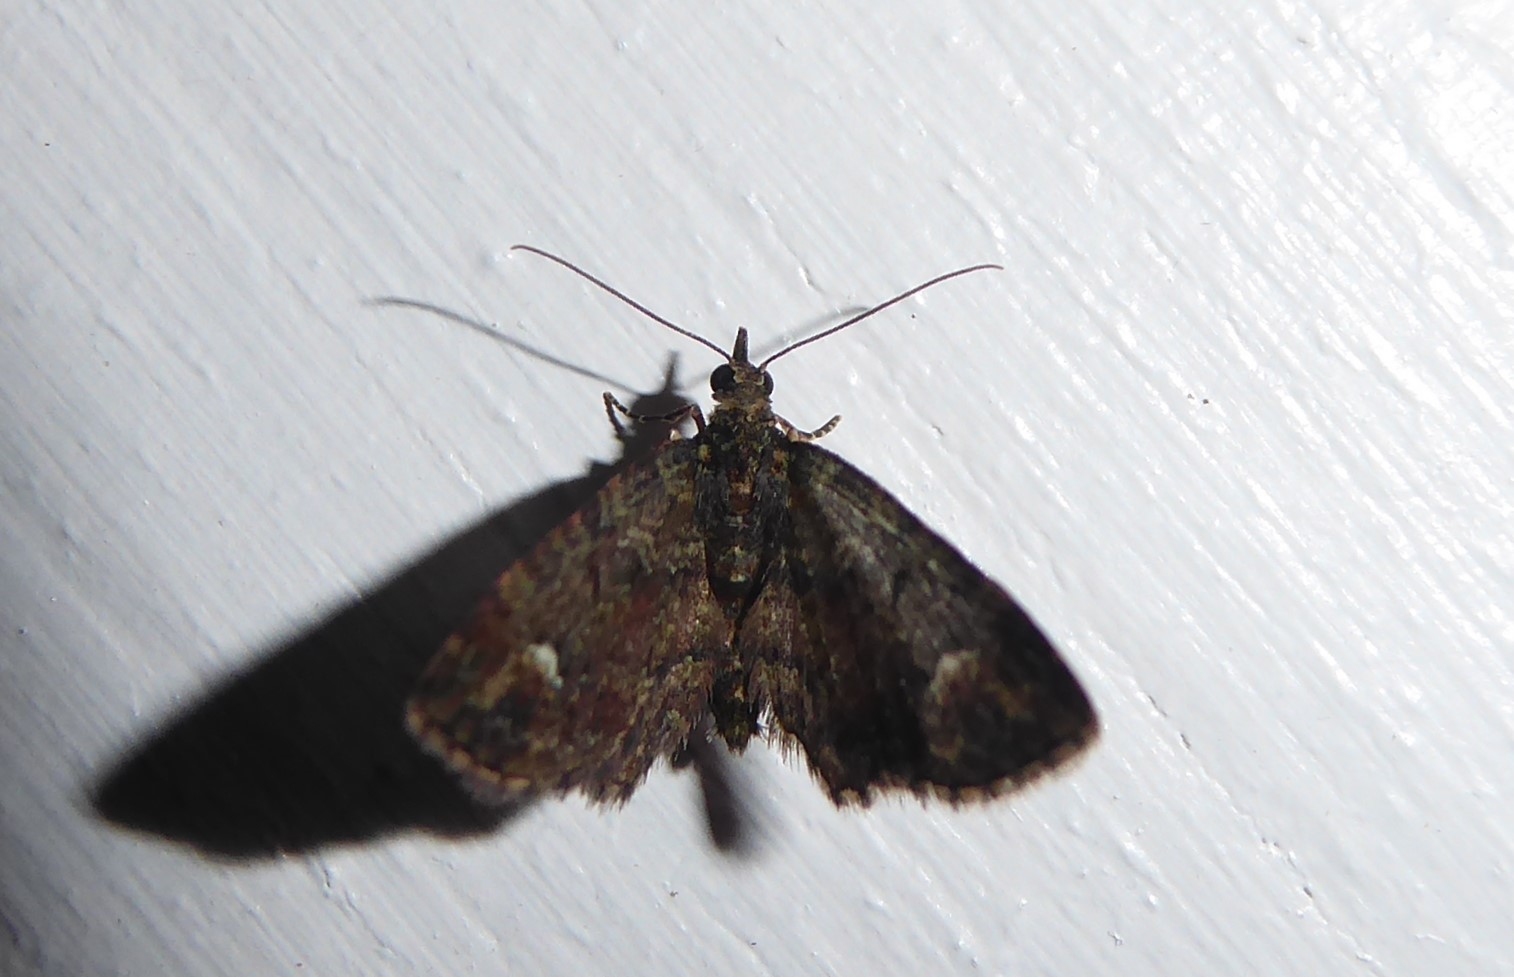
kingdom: Animalia
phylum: Arthropoda
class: Insecta
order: Lepidoptera
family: Geometridae
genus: Pasiphilodes
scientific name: Pasiphilodes testulata
